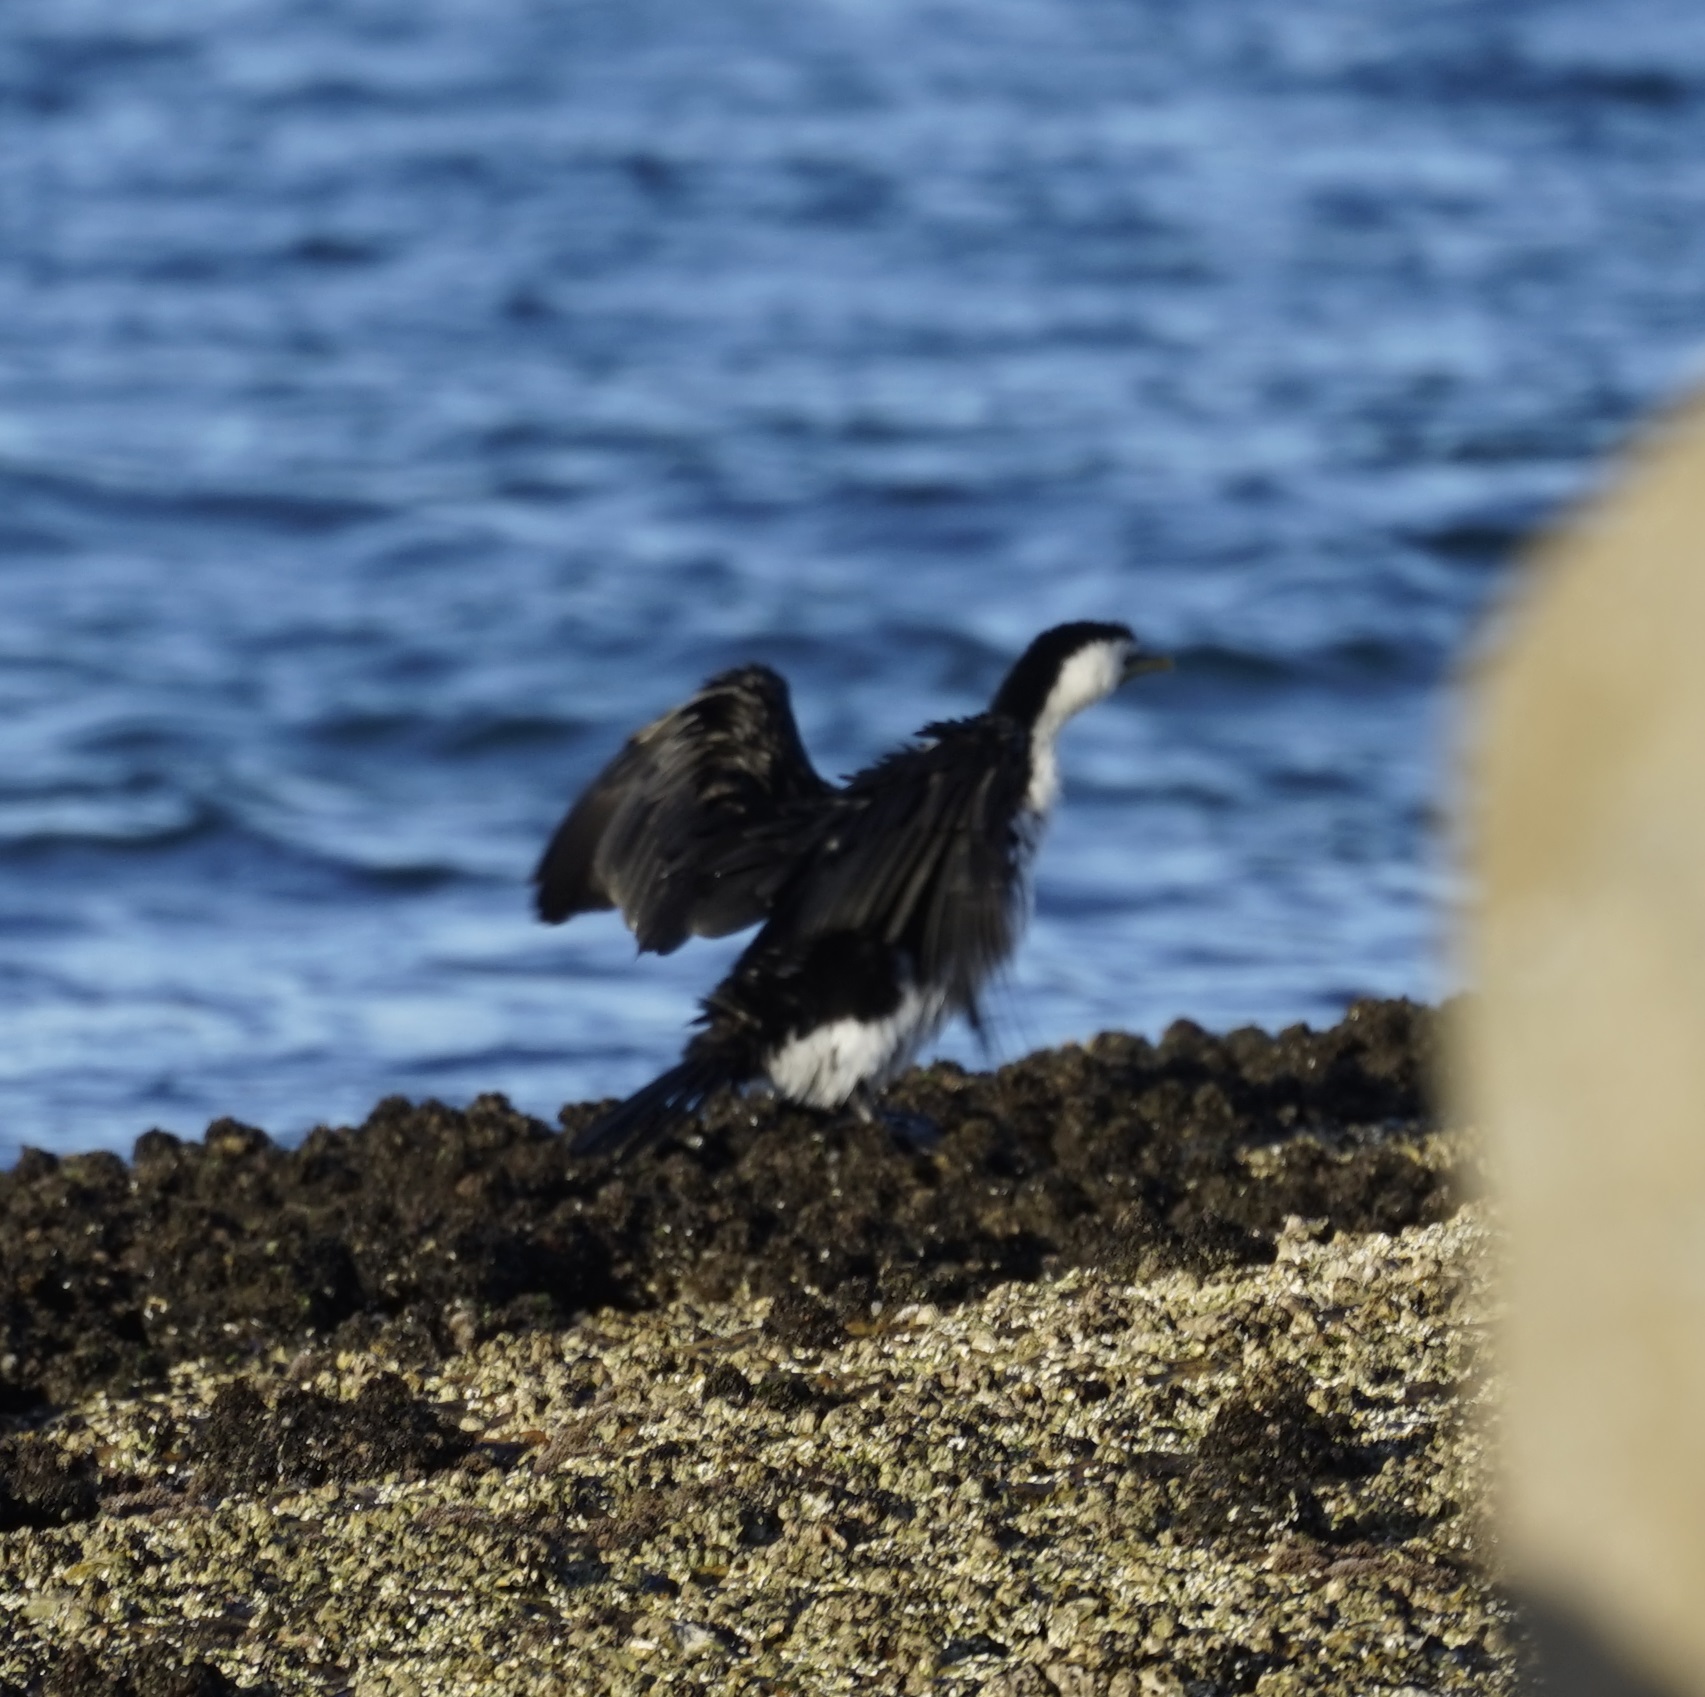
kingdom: Animalia
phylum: Chordata
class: Aves
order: Suliformes
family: Phalacrocoracidae
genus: Microcarbo
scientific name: Microcarbo melanoleucos
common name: Little pied cormorant
